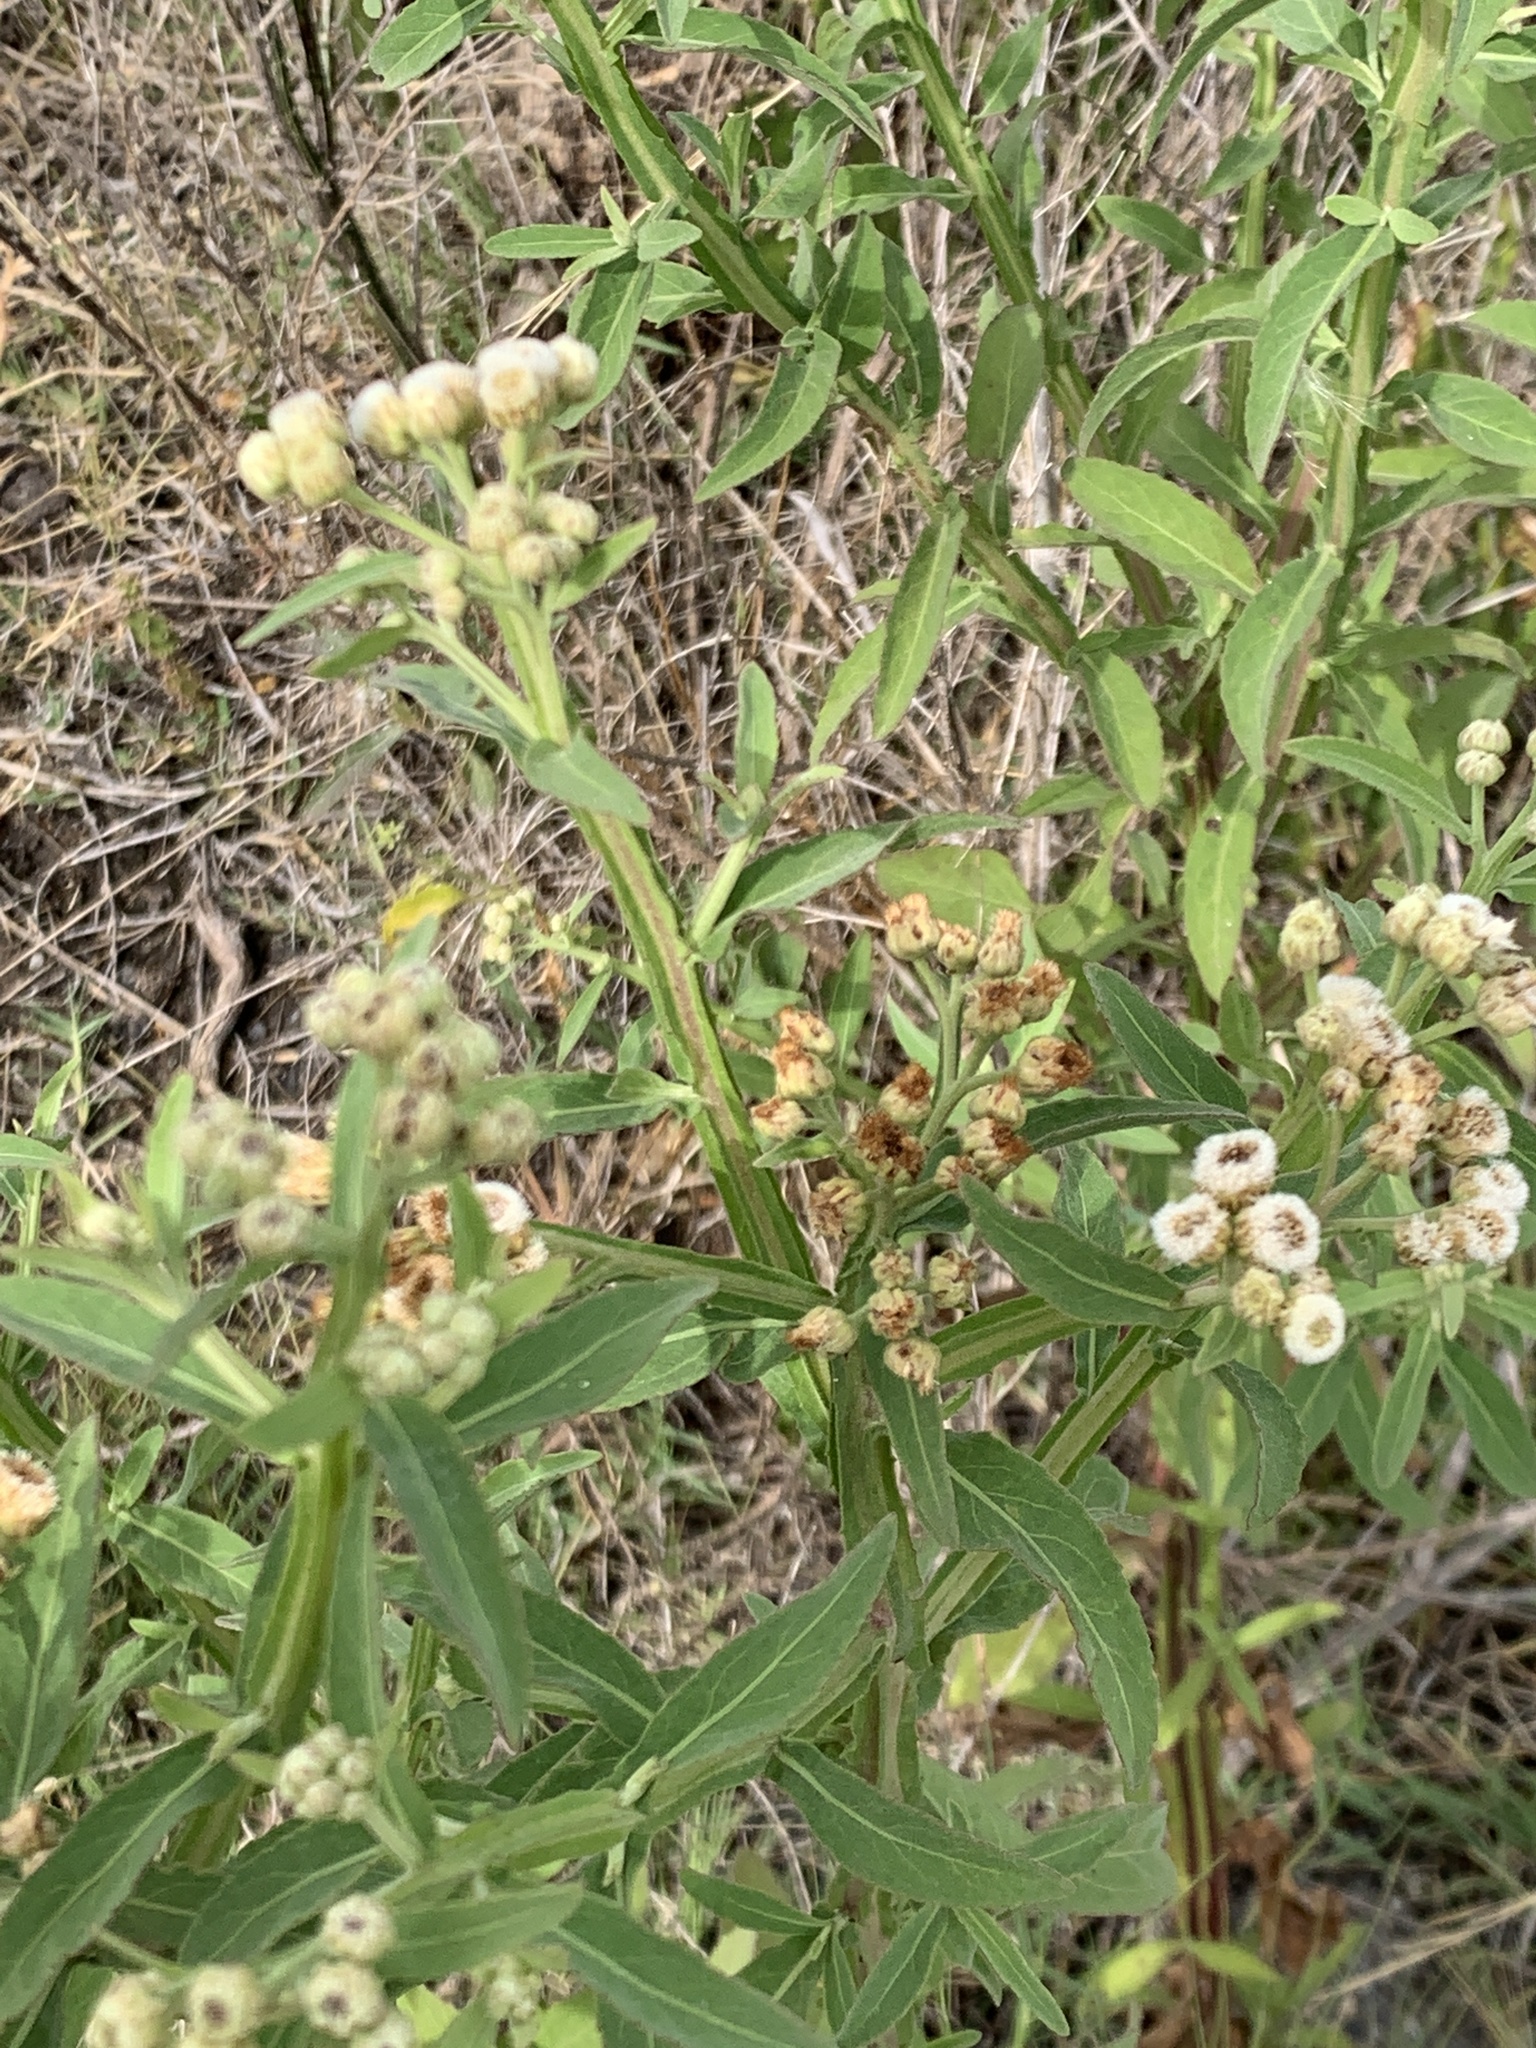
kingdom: Plantae
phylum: Tracheophyta
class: Magnoliopsida
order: Asterales
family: Asteraceae
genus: Pluchea
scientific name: Pluchea sagittalis
